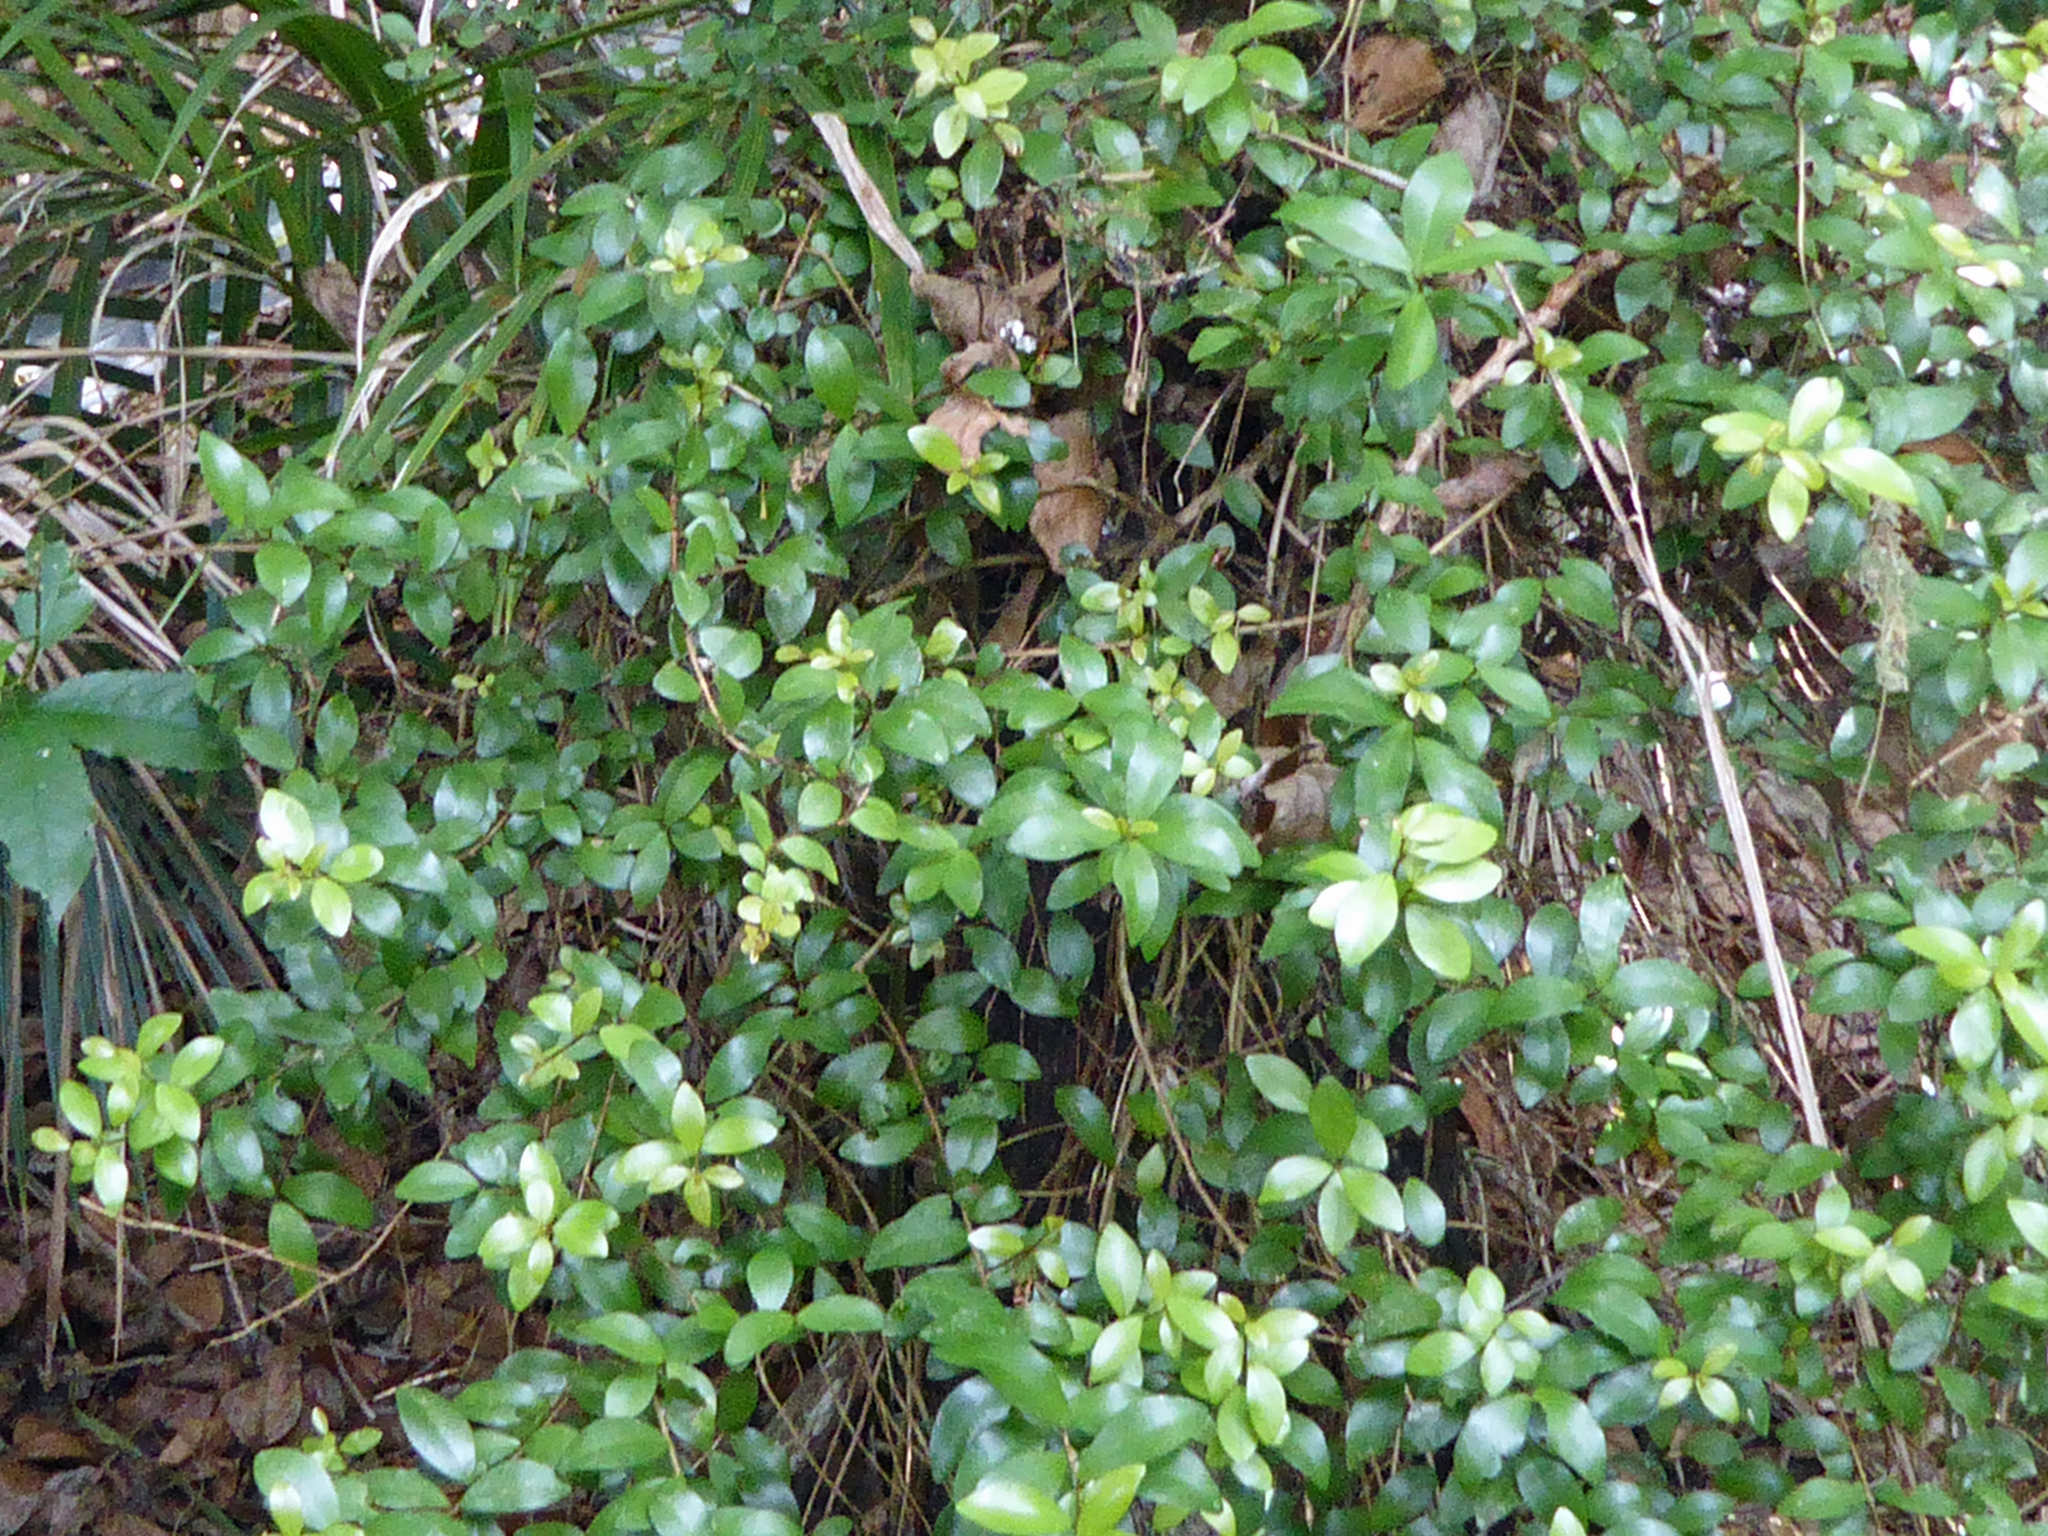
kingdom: Plantae
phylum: Tracheophyta
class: Magnoliopsida
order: Myrtales
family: Myrtaceae
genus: Metrosideros
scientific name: Metrosideros fulgens
